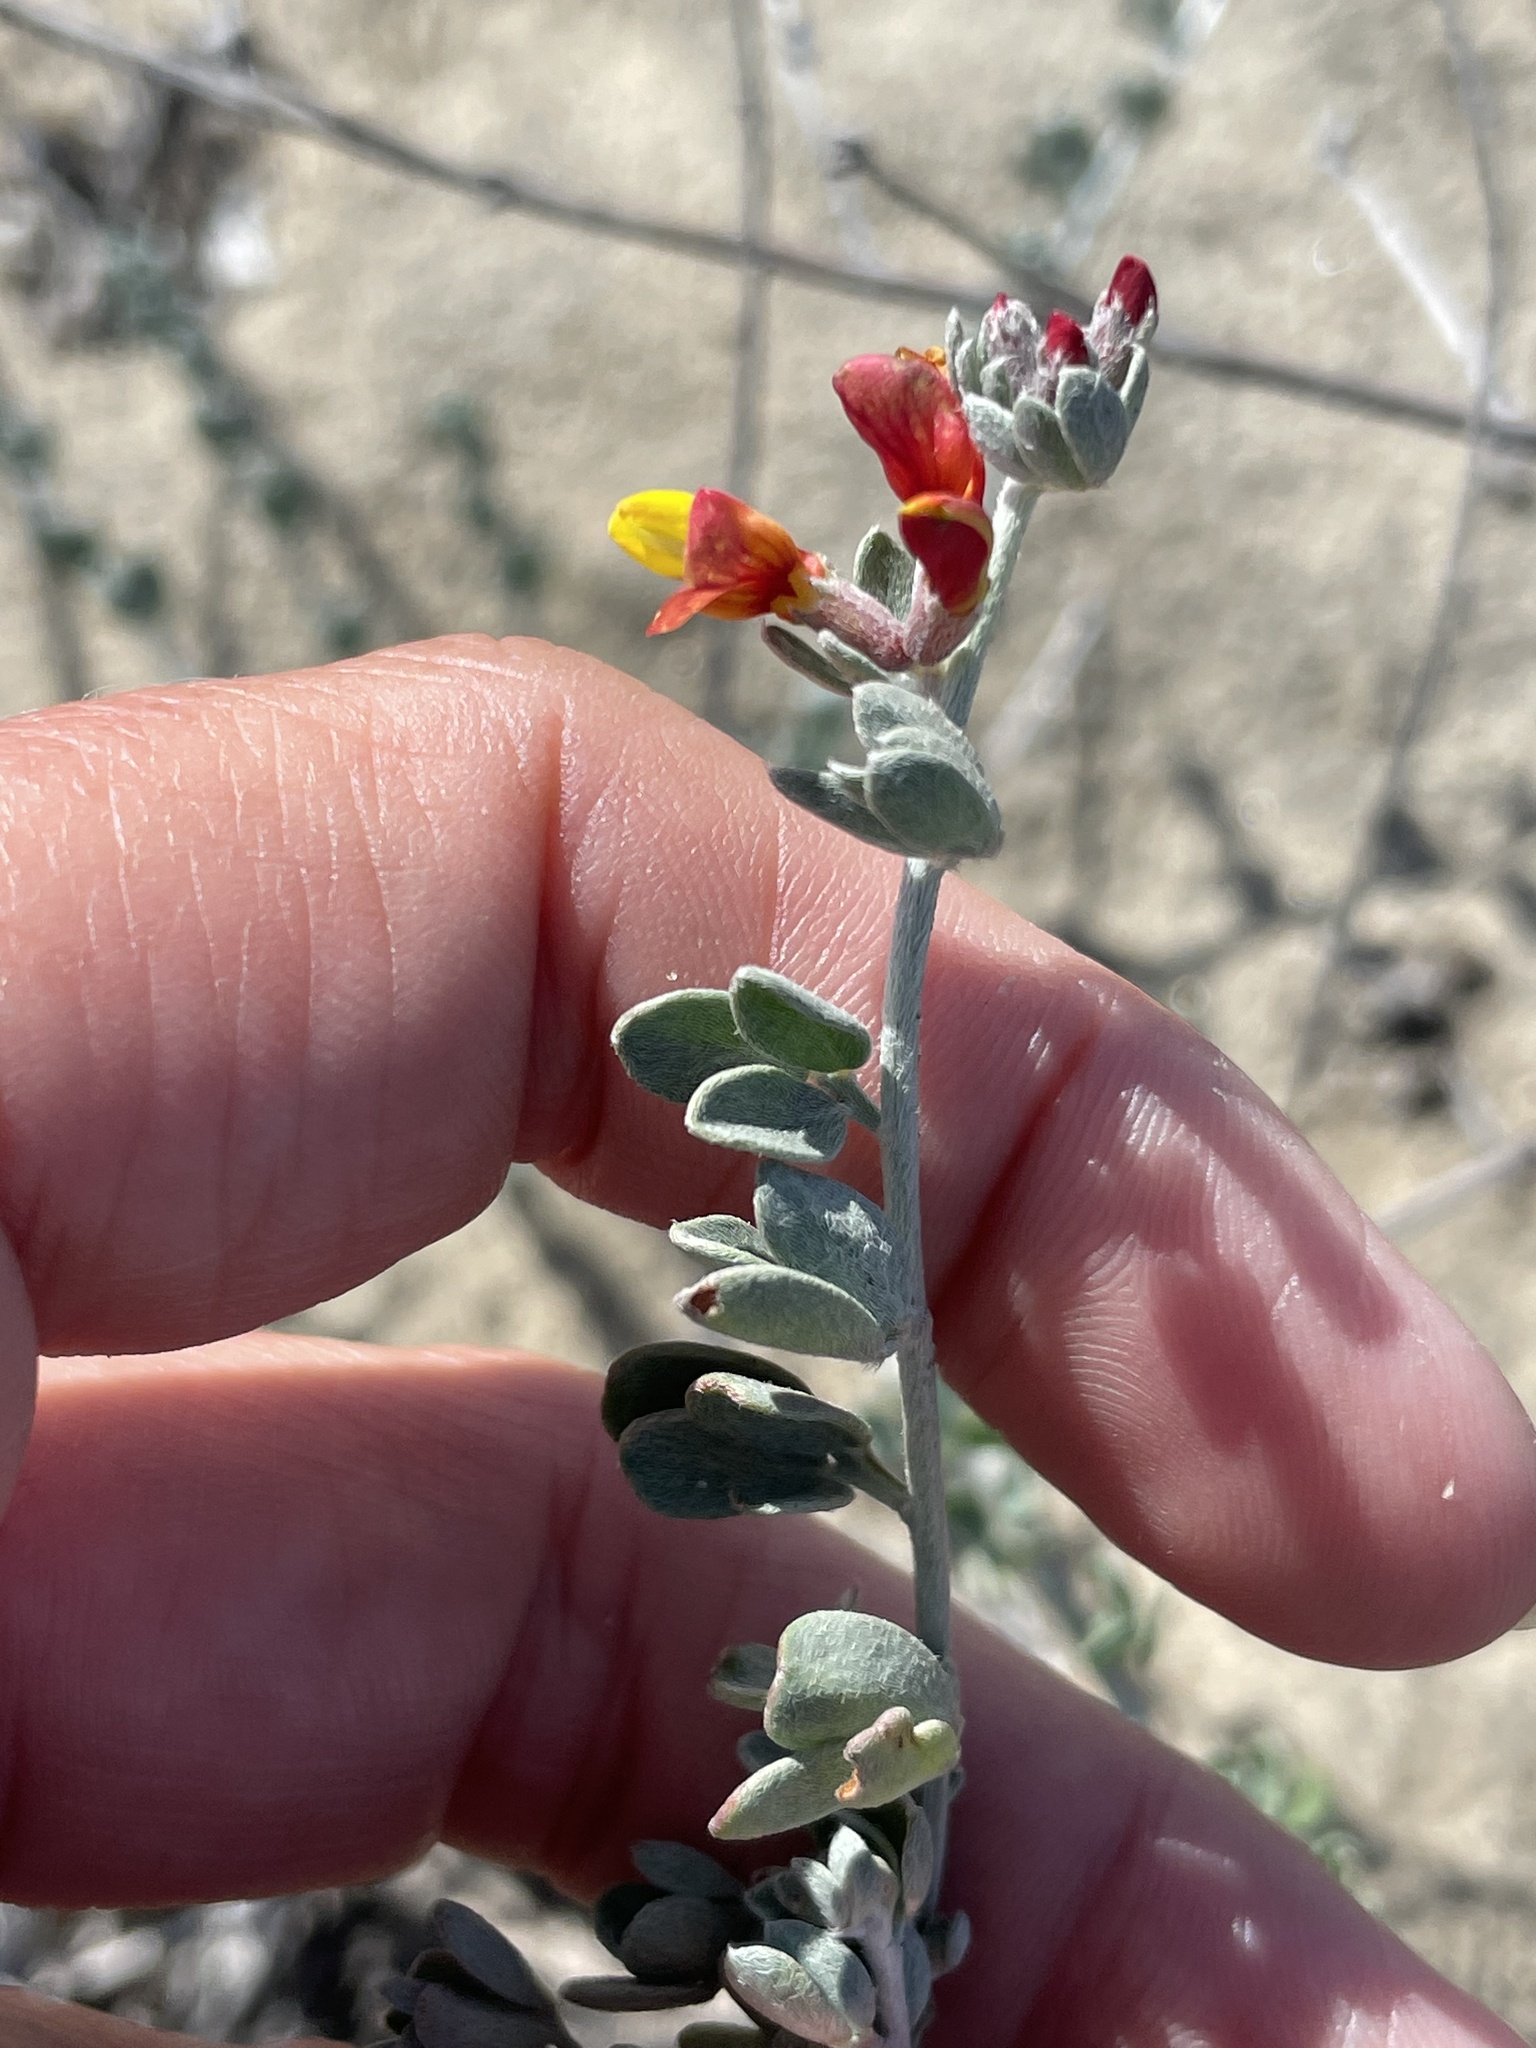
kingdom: Plantae
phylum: Tracheophyta
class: Magnoliopsida
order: Fabales
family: Fabaceae
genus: Acmispon
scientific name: Acmispon distichus
